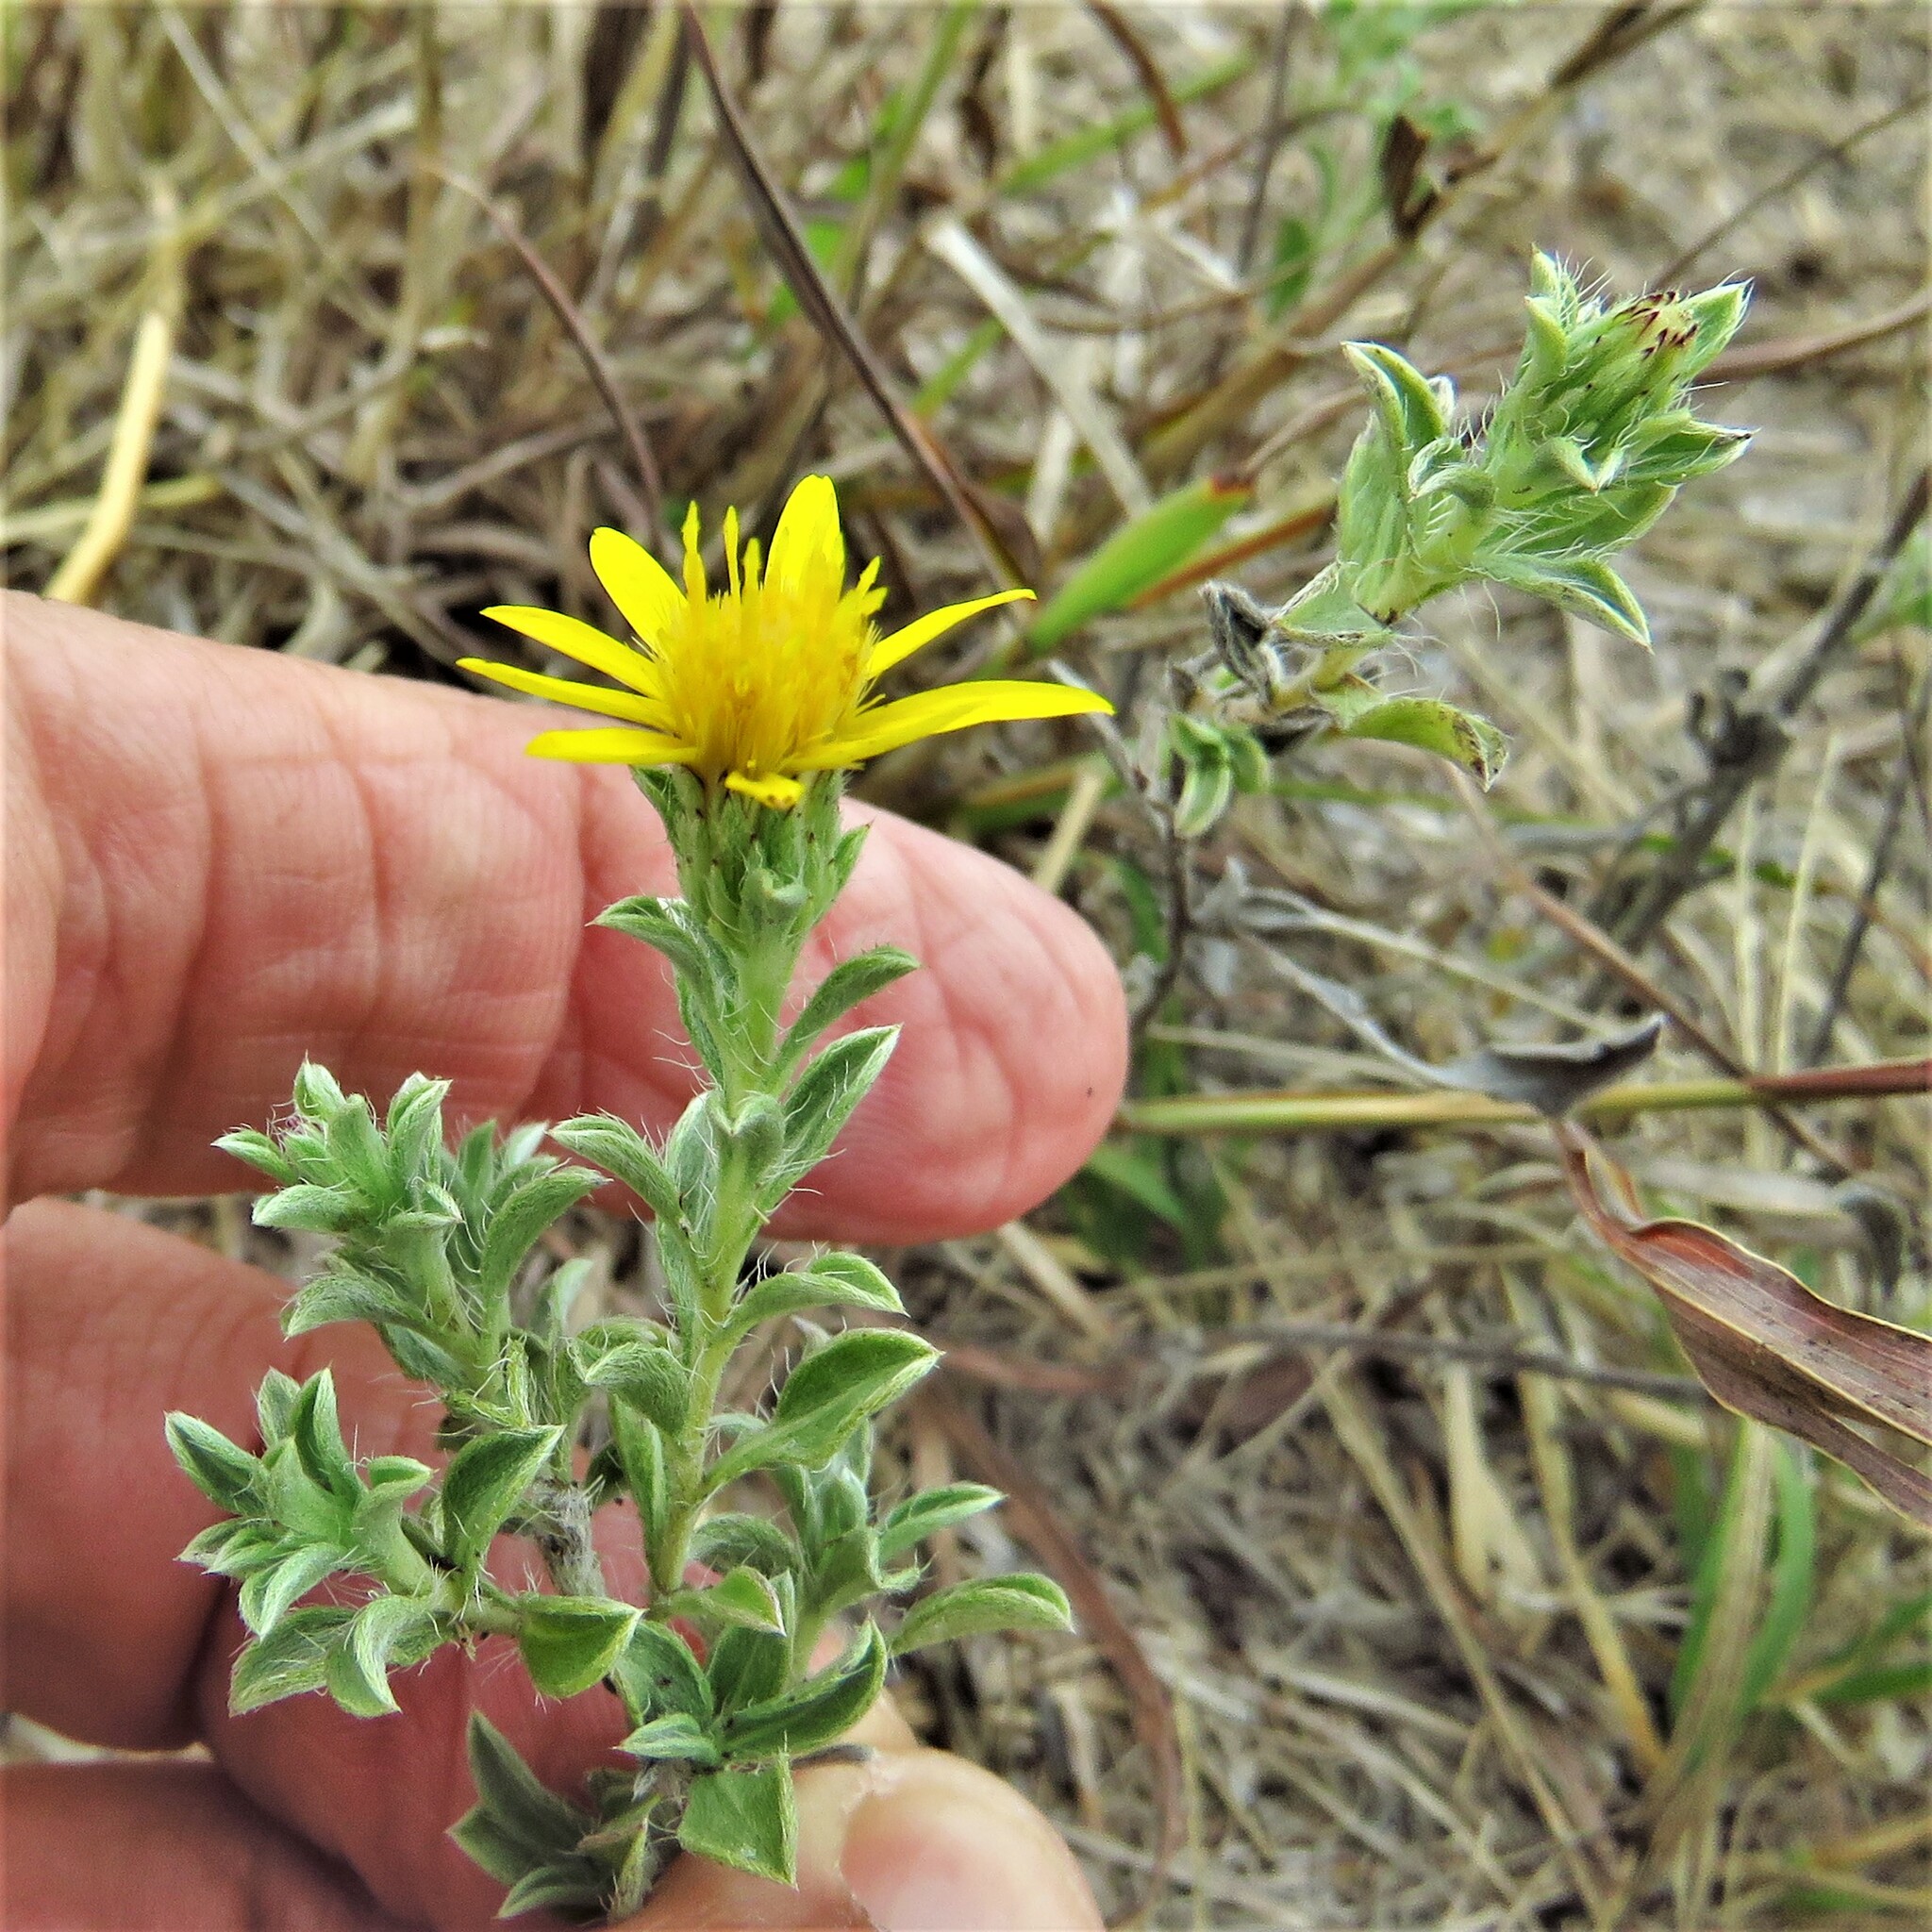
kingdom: Plantae
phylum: Tracheophyta
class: Magnoliopsida
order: Asterales
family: Asteraceae
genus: Heterotheca
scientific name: Heterotheca canescens
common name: Hoary golden-aster
